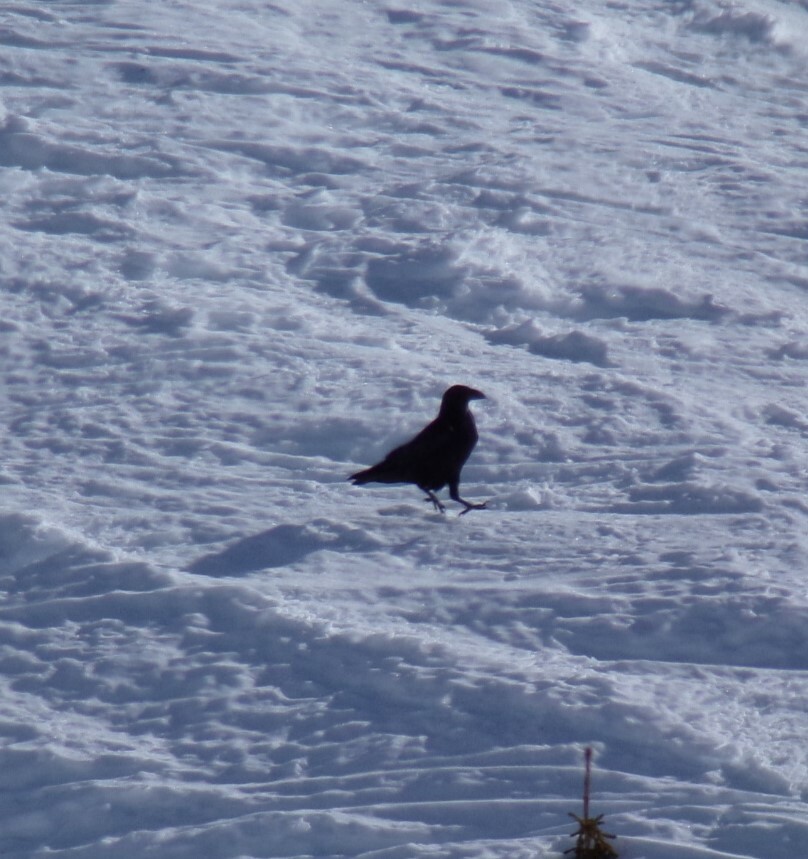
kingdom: Animalia
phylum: Chordata
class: Aves
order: Passeriformes
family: Corvidae
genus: Corvus
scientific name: Corvus corax
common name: Common raven
